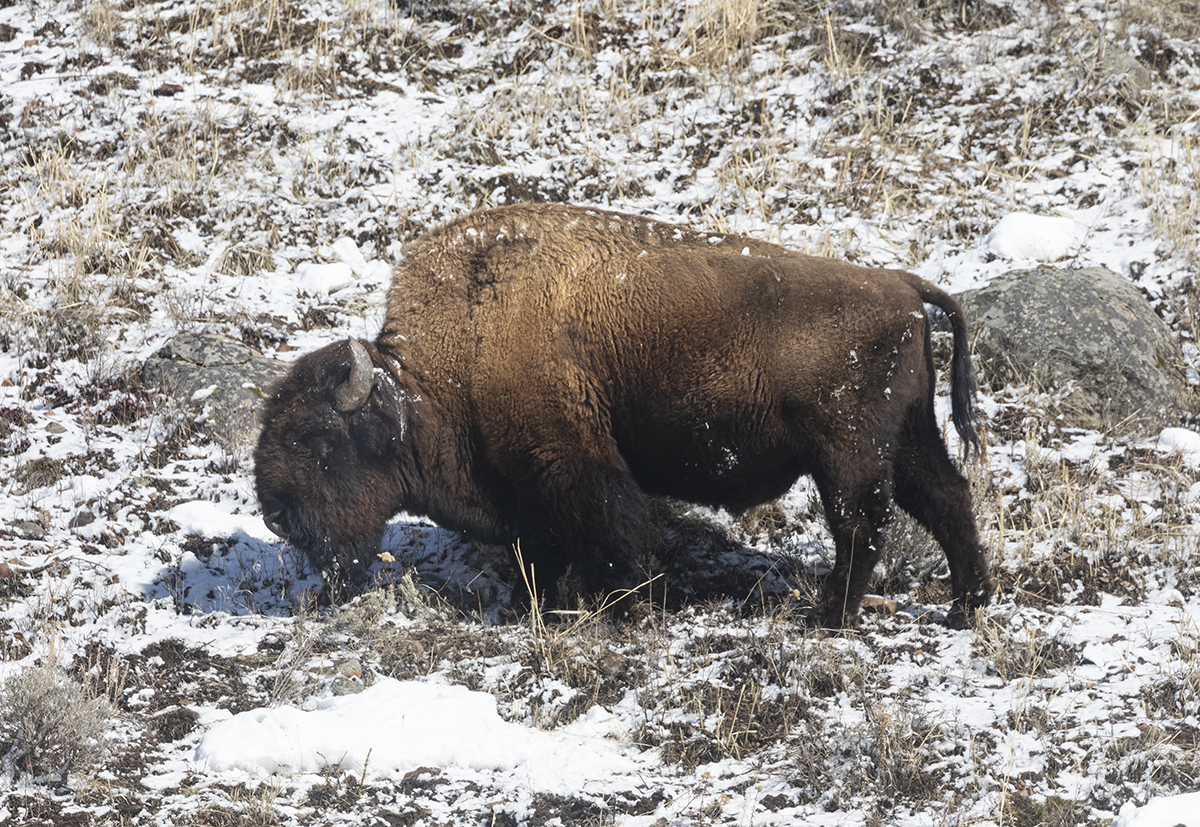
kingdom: Animalia
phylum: Chordata
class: Mammalia
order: Artiodactyla
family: Bovidae
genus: Bison
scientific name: Bison bison
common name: American bison
